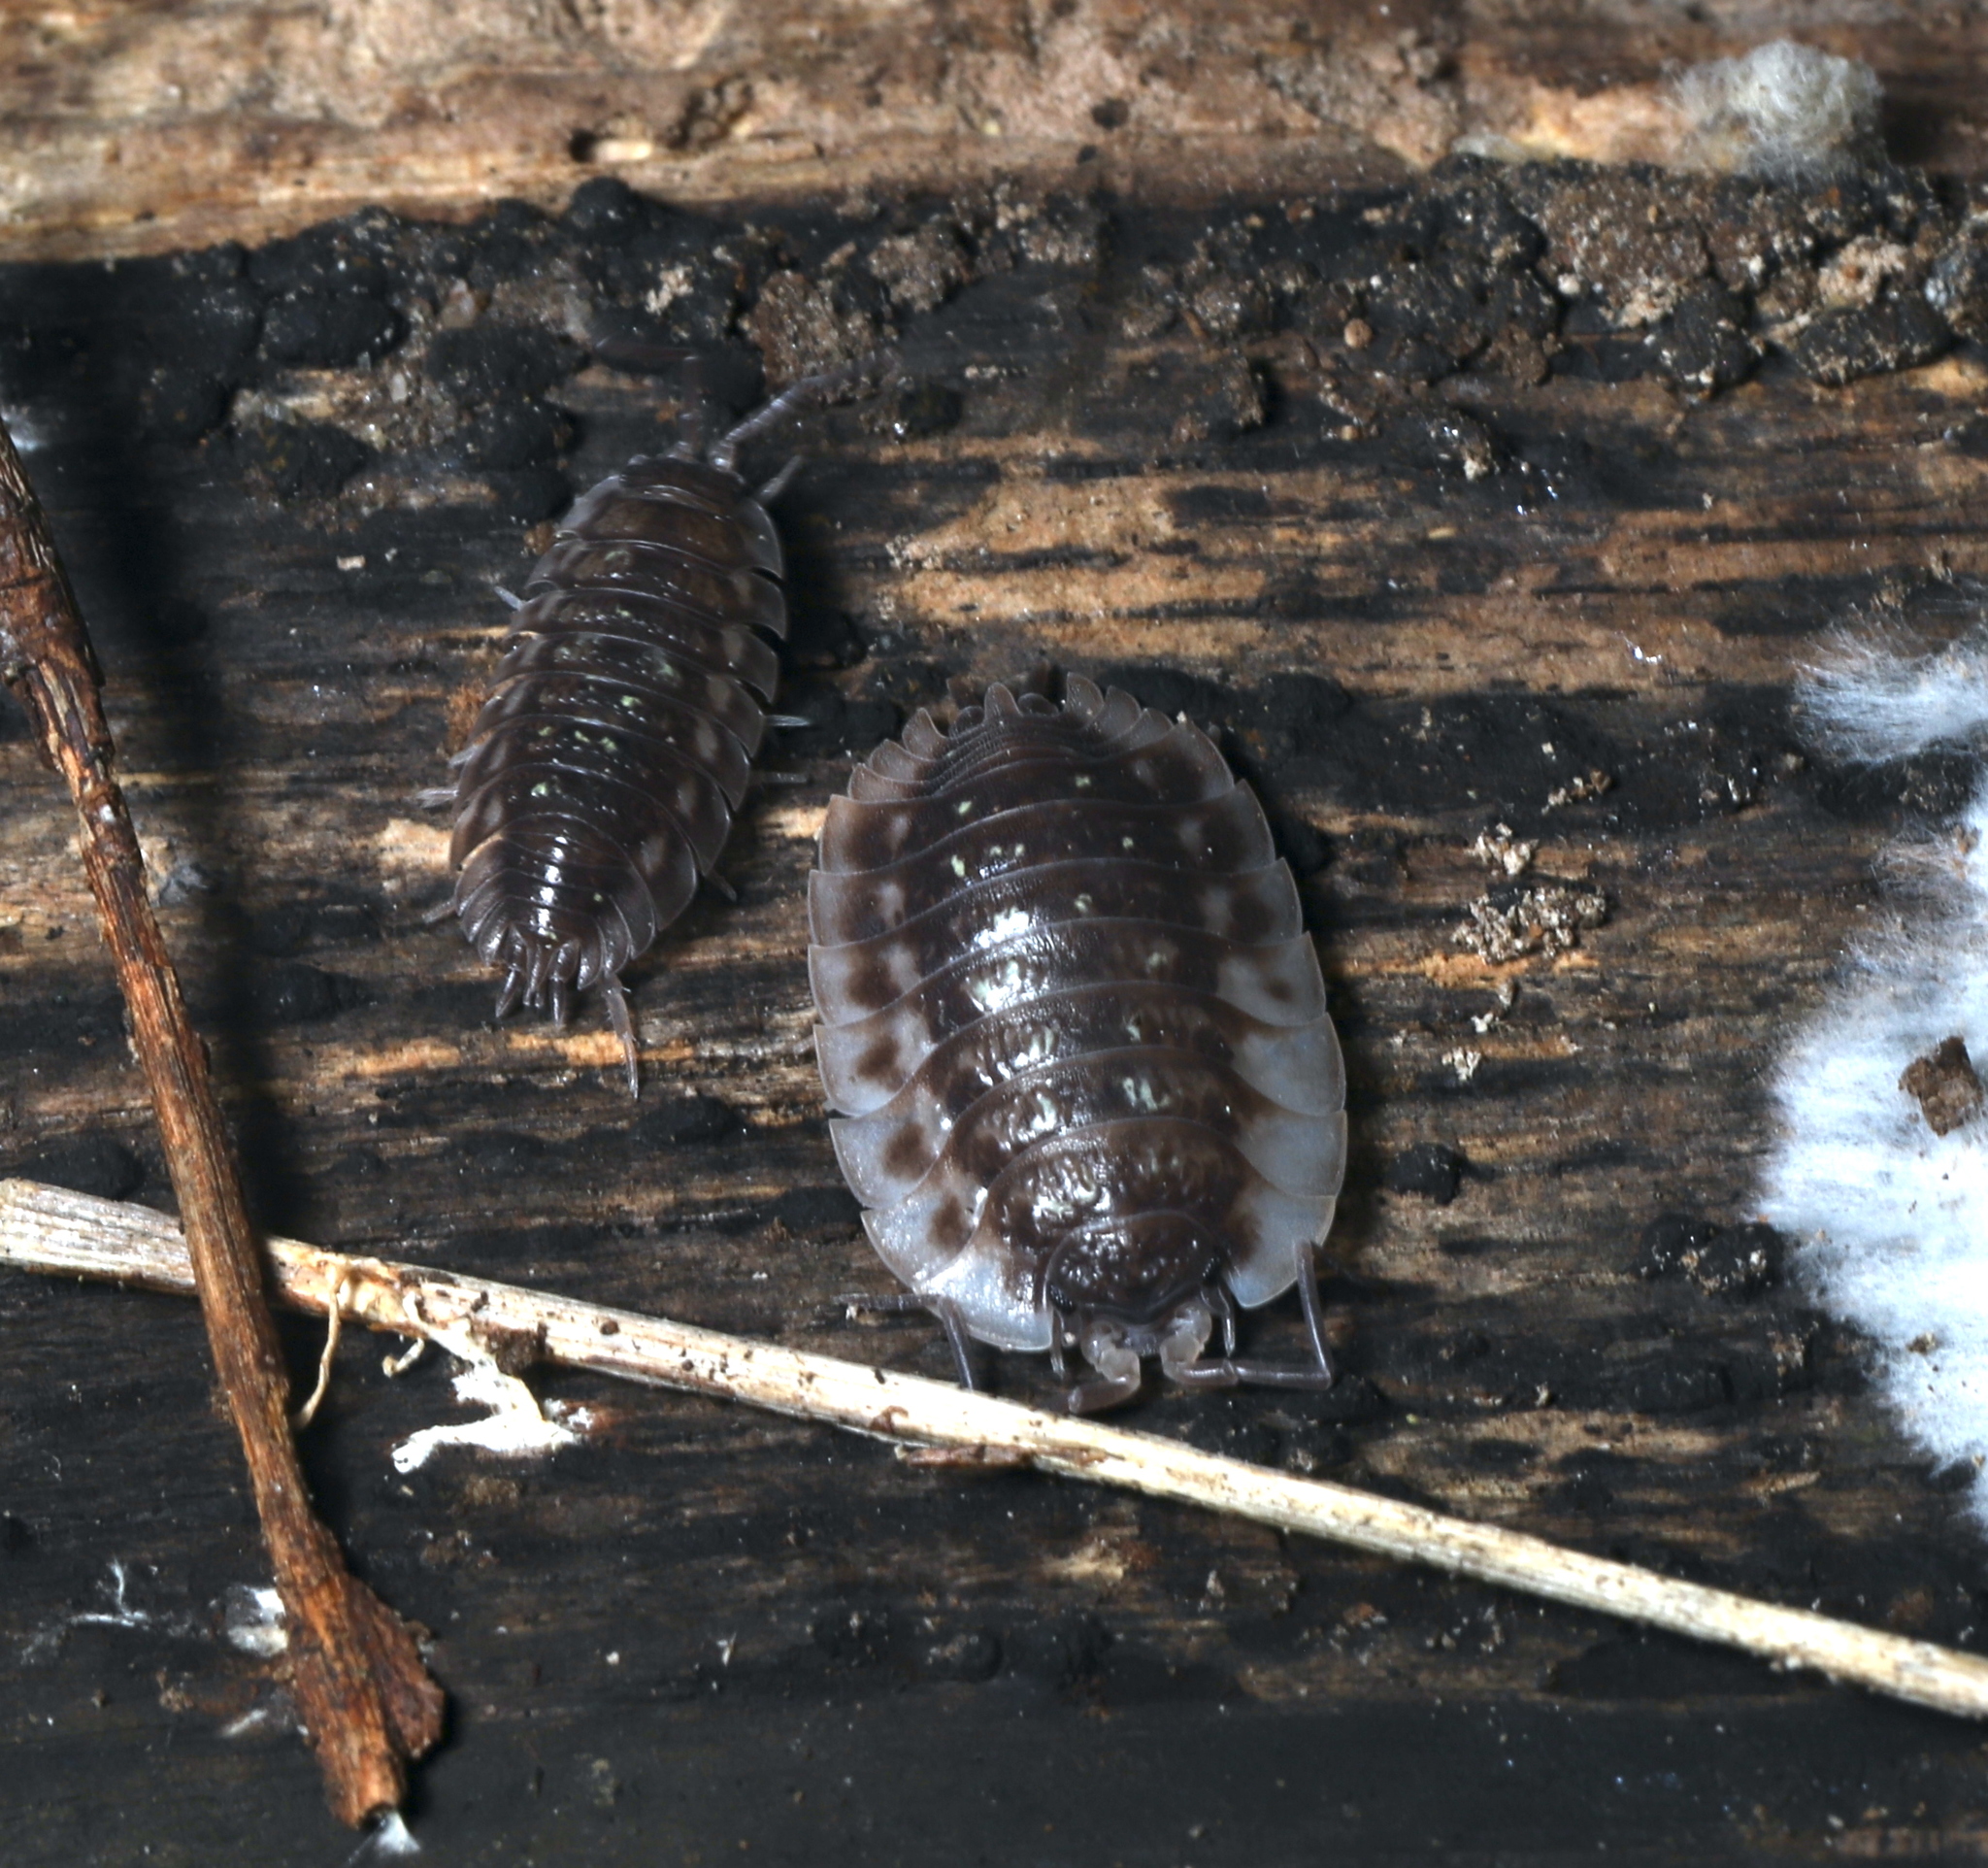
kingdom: Animalia
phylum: Arthropoda
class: Malacostraca
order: Isopoda
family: Oniscidae
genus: Oniscus
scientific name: Oniscus asellus
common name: Common shiny woodlouse
